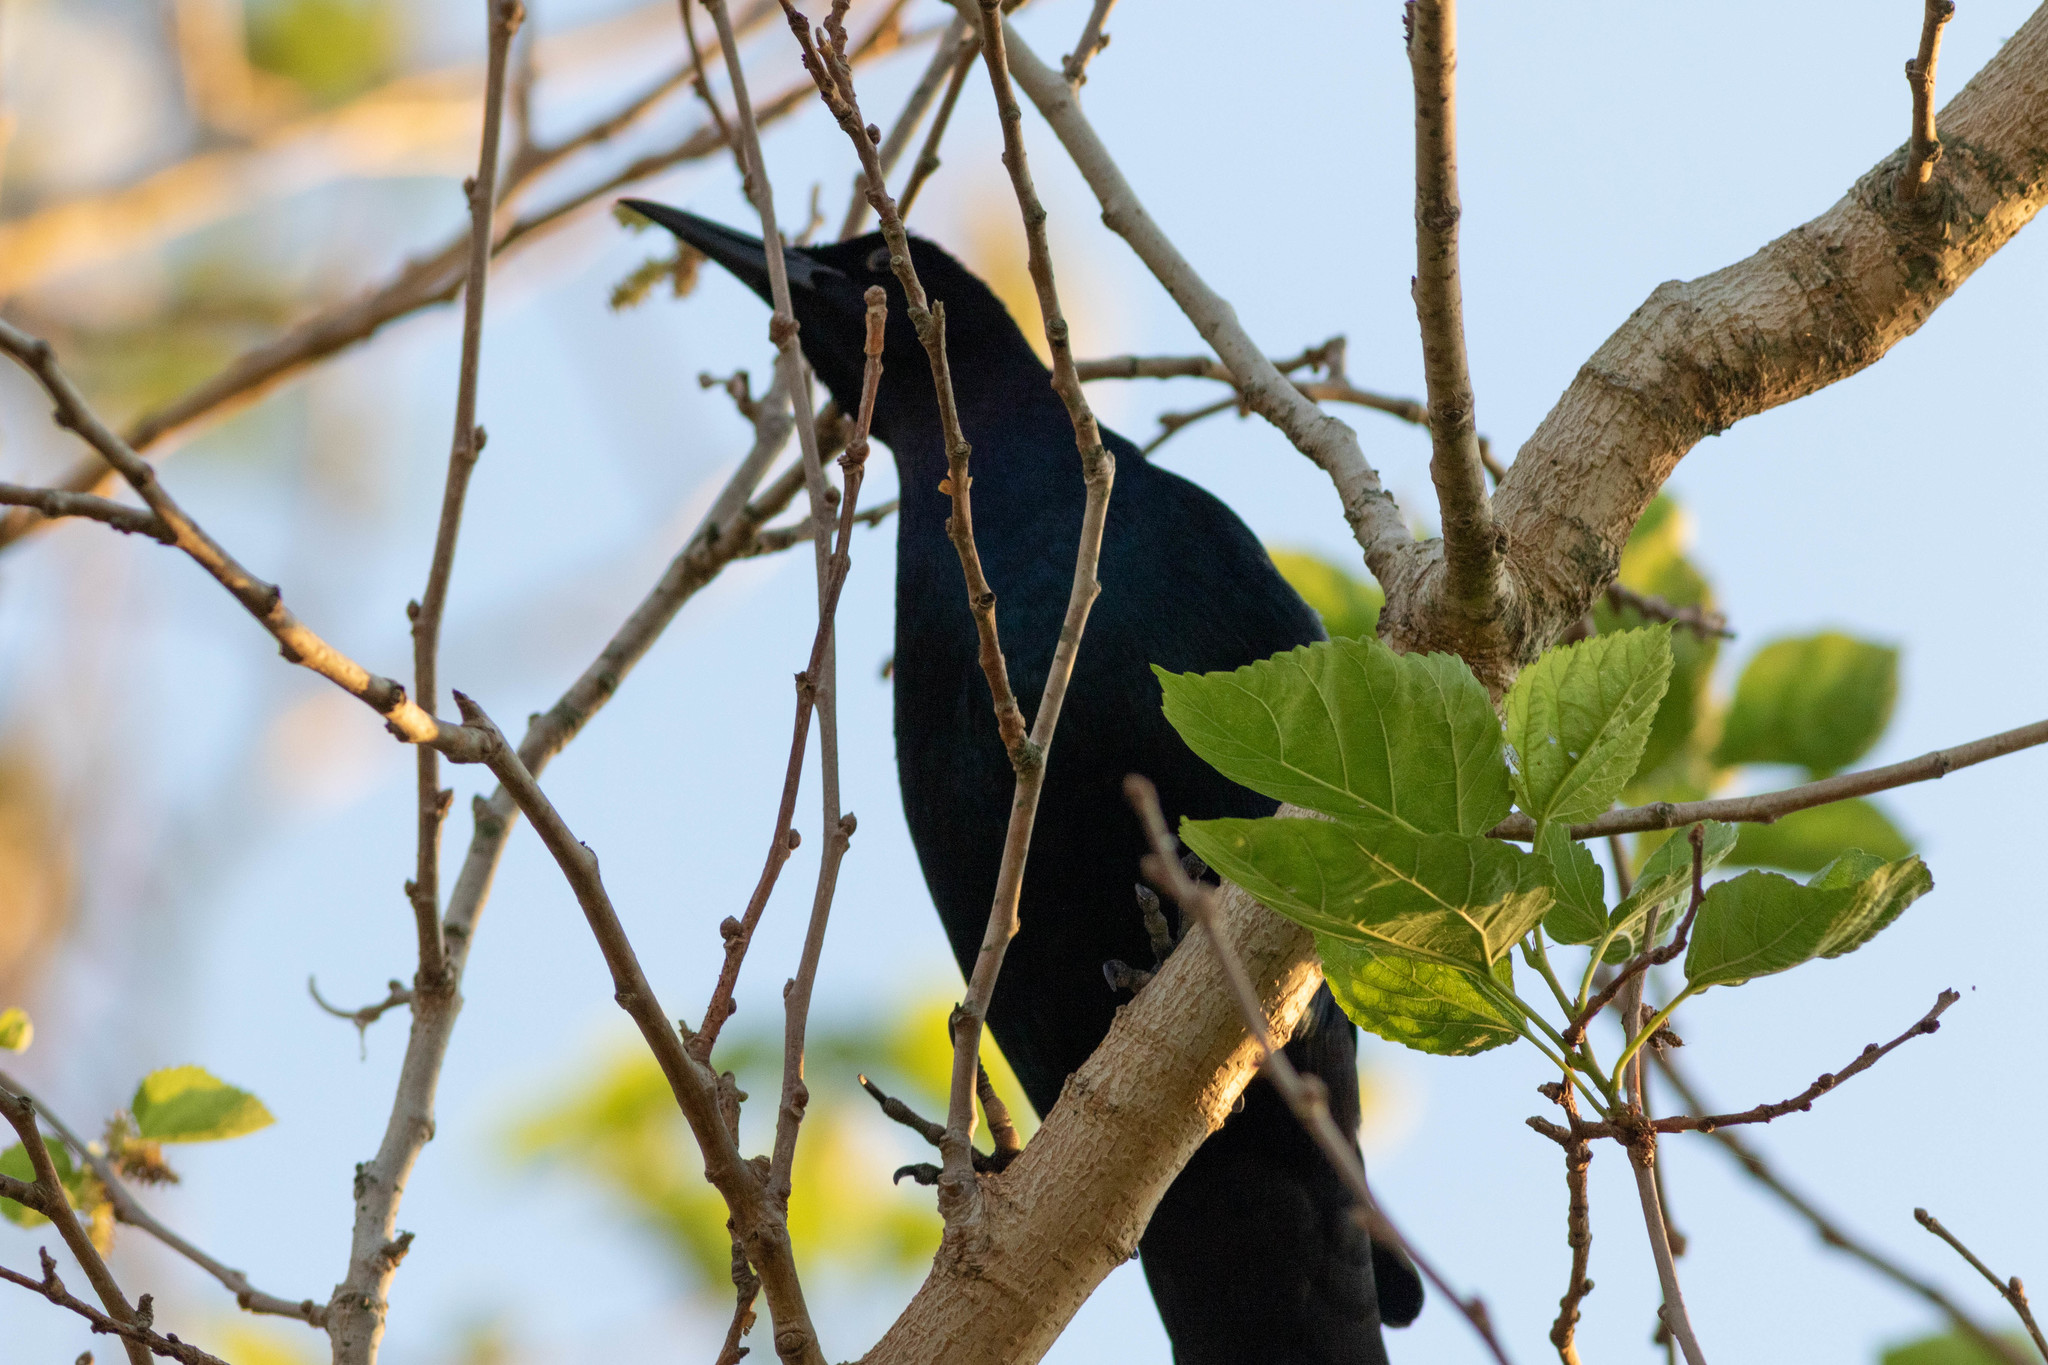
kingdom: Animalia
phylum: Chordata
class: Aves
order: Passeriformes
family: Icteridae
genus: Quiscalus
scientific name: Quiscalus mexicanus
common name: Great-tailed grackle
